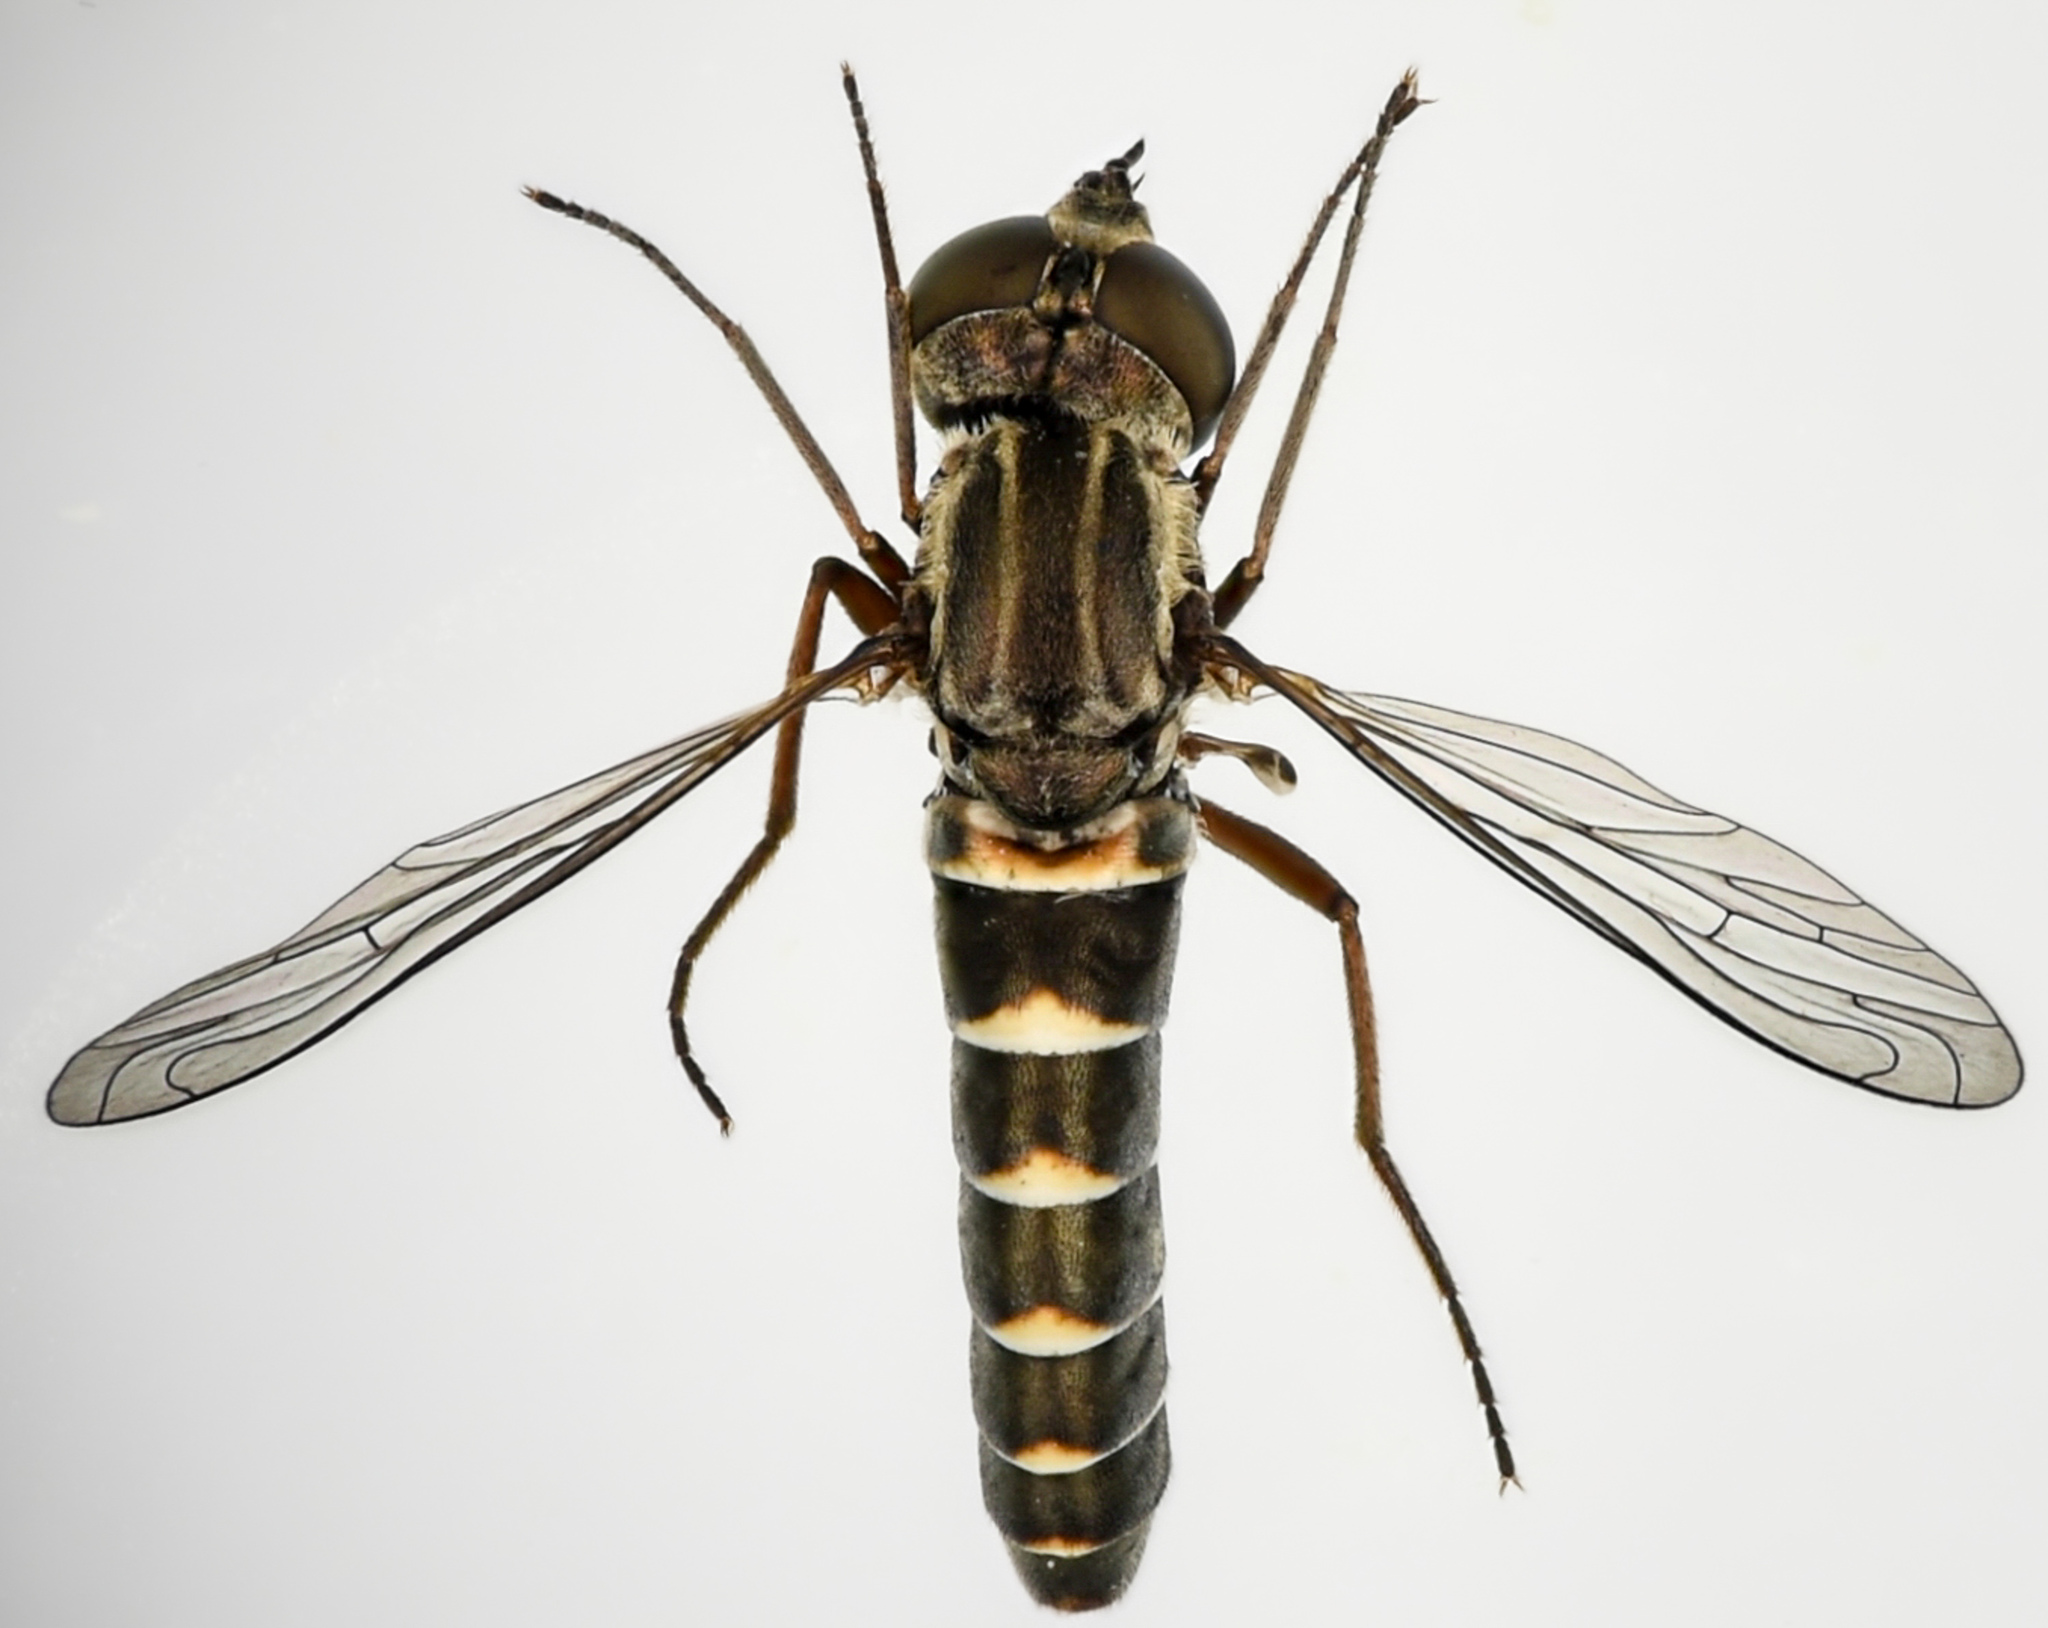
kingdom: Animalia
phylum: Arthropoda
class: Insecta
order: Diptera
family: Bombyliidae
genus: Paracosmus
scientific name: Paracosmus edwardsii
